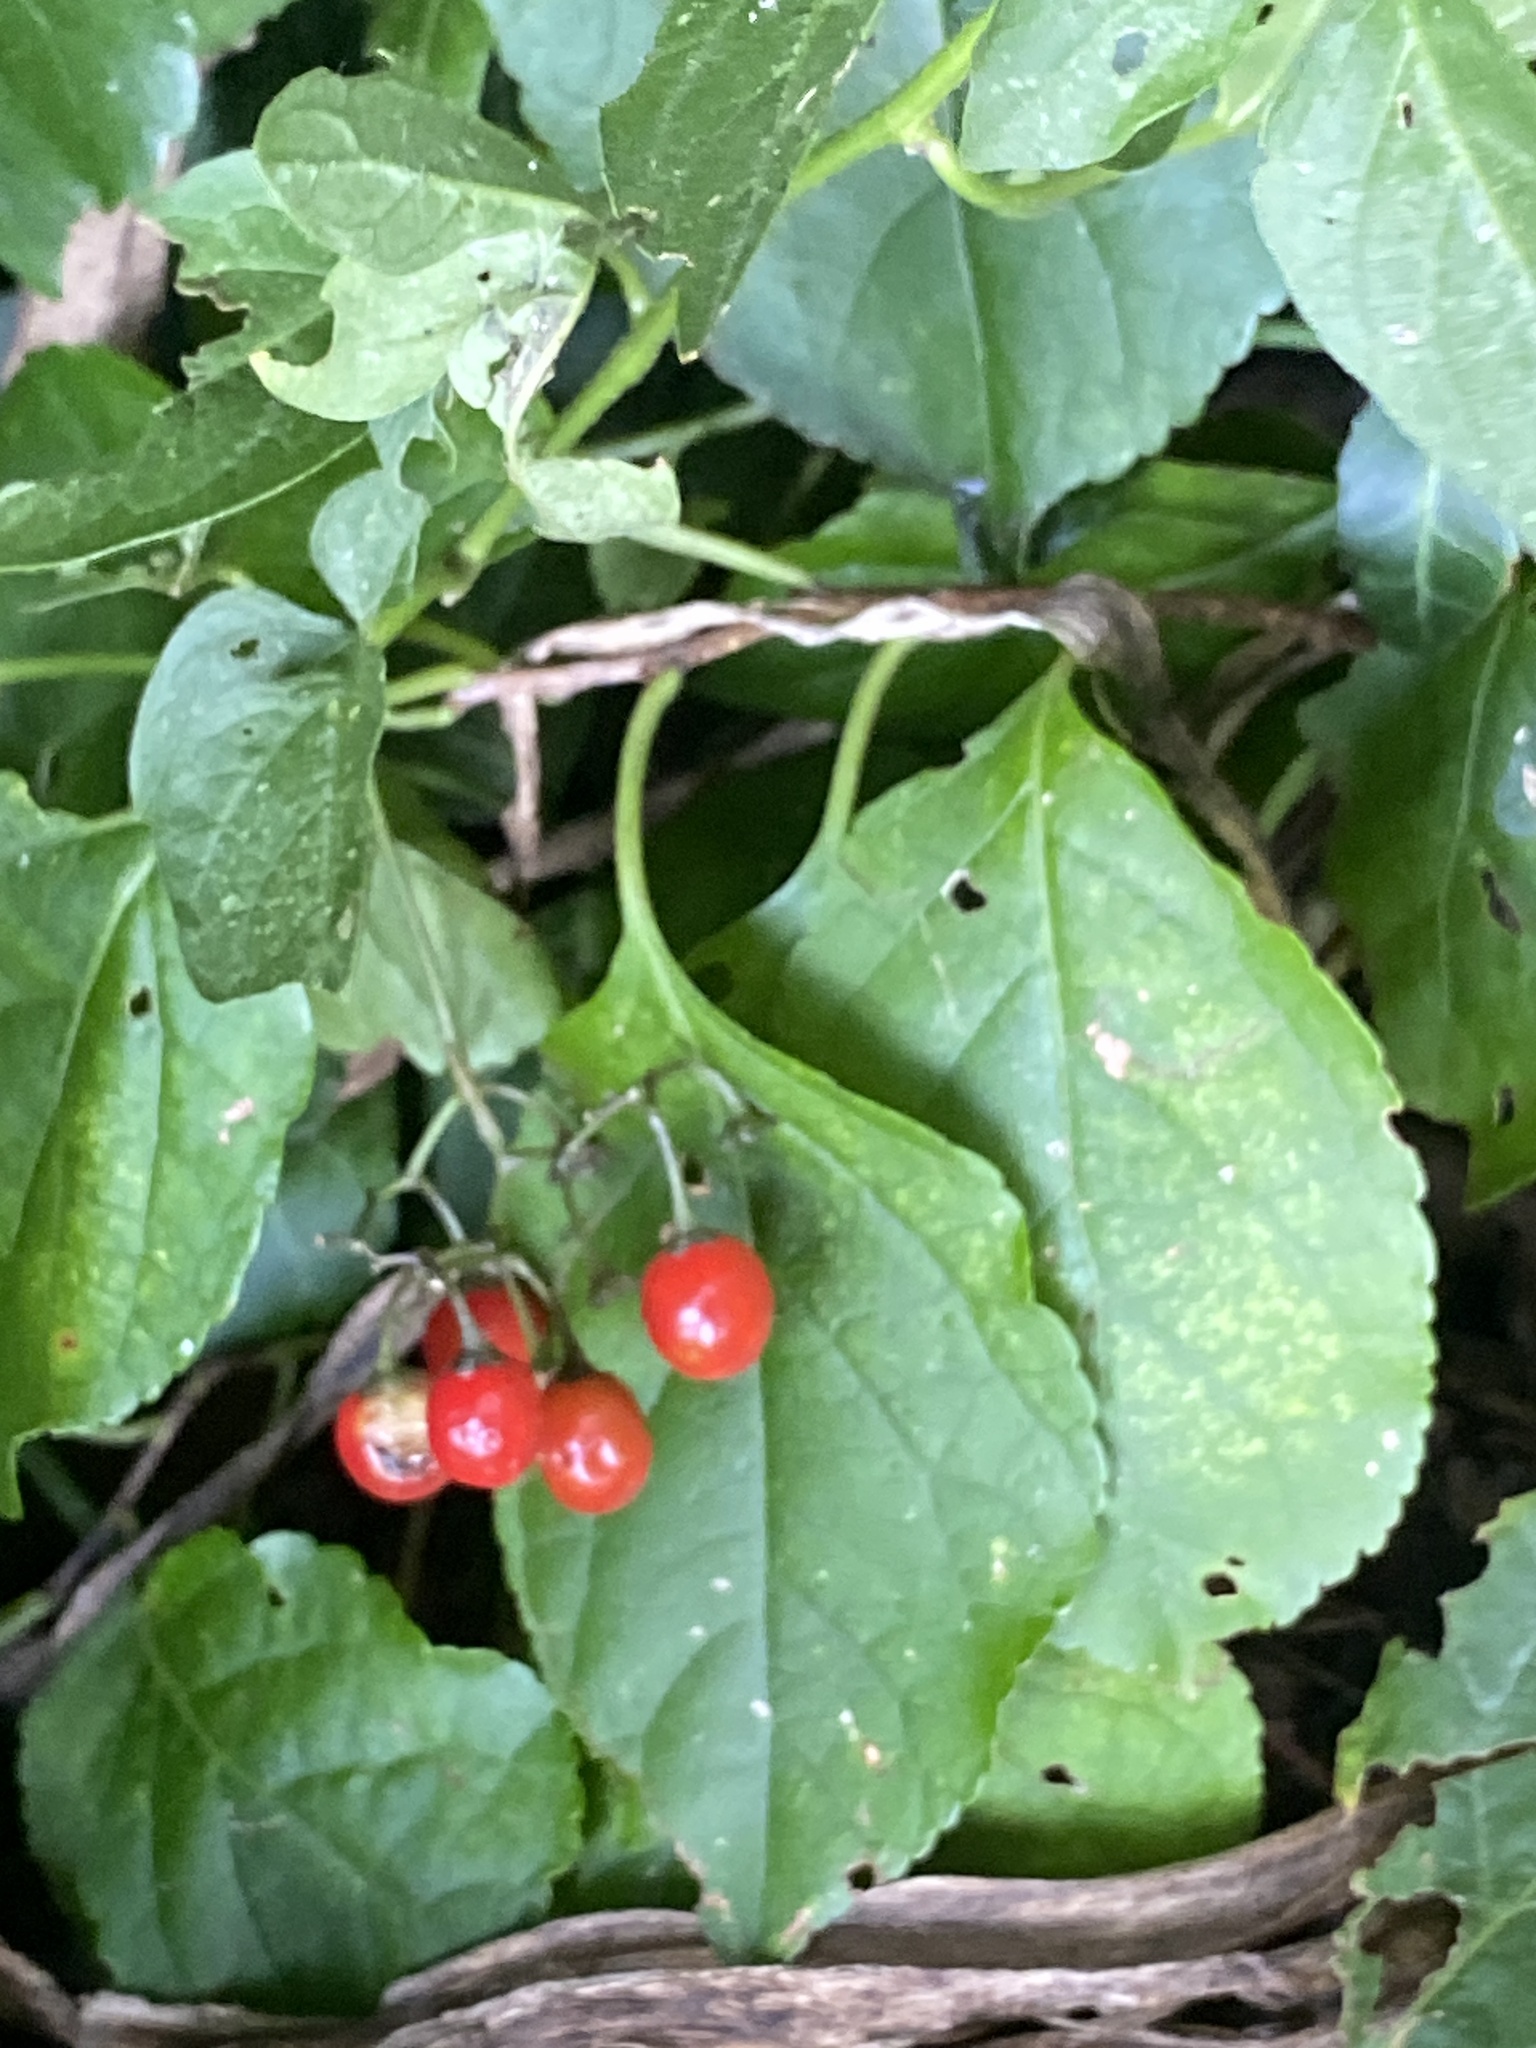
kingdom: Plantae
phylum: Tracheophyta
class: Magnoliopsida
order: Solanales
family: Solanaceae
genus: Solanum
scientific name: Solanum dulcamara
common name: Climbing nightshade
